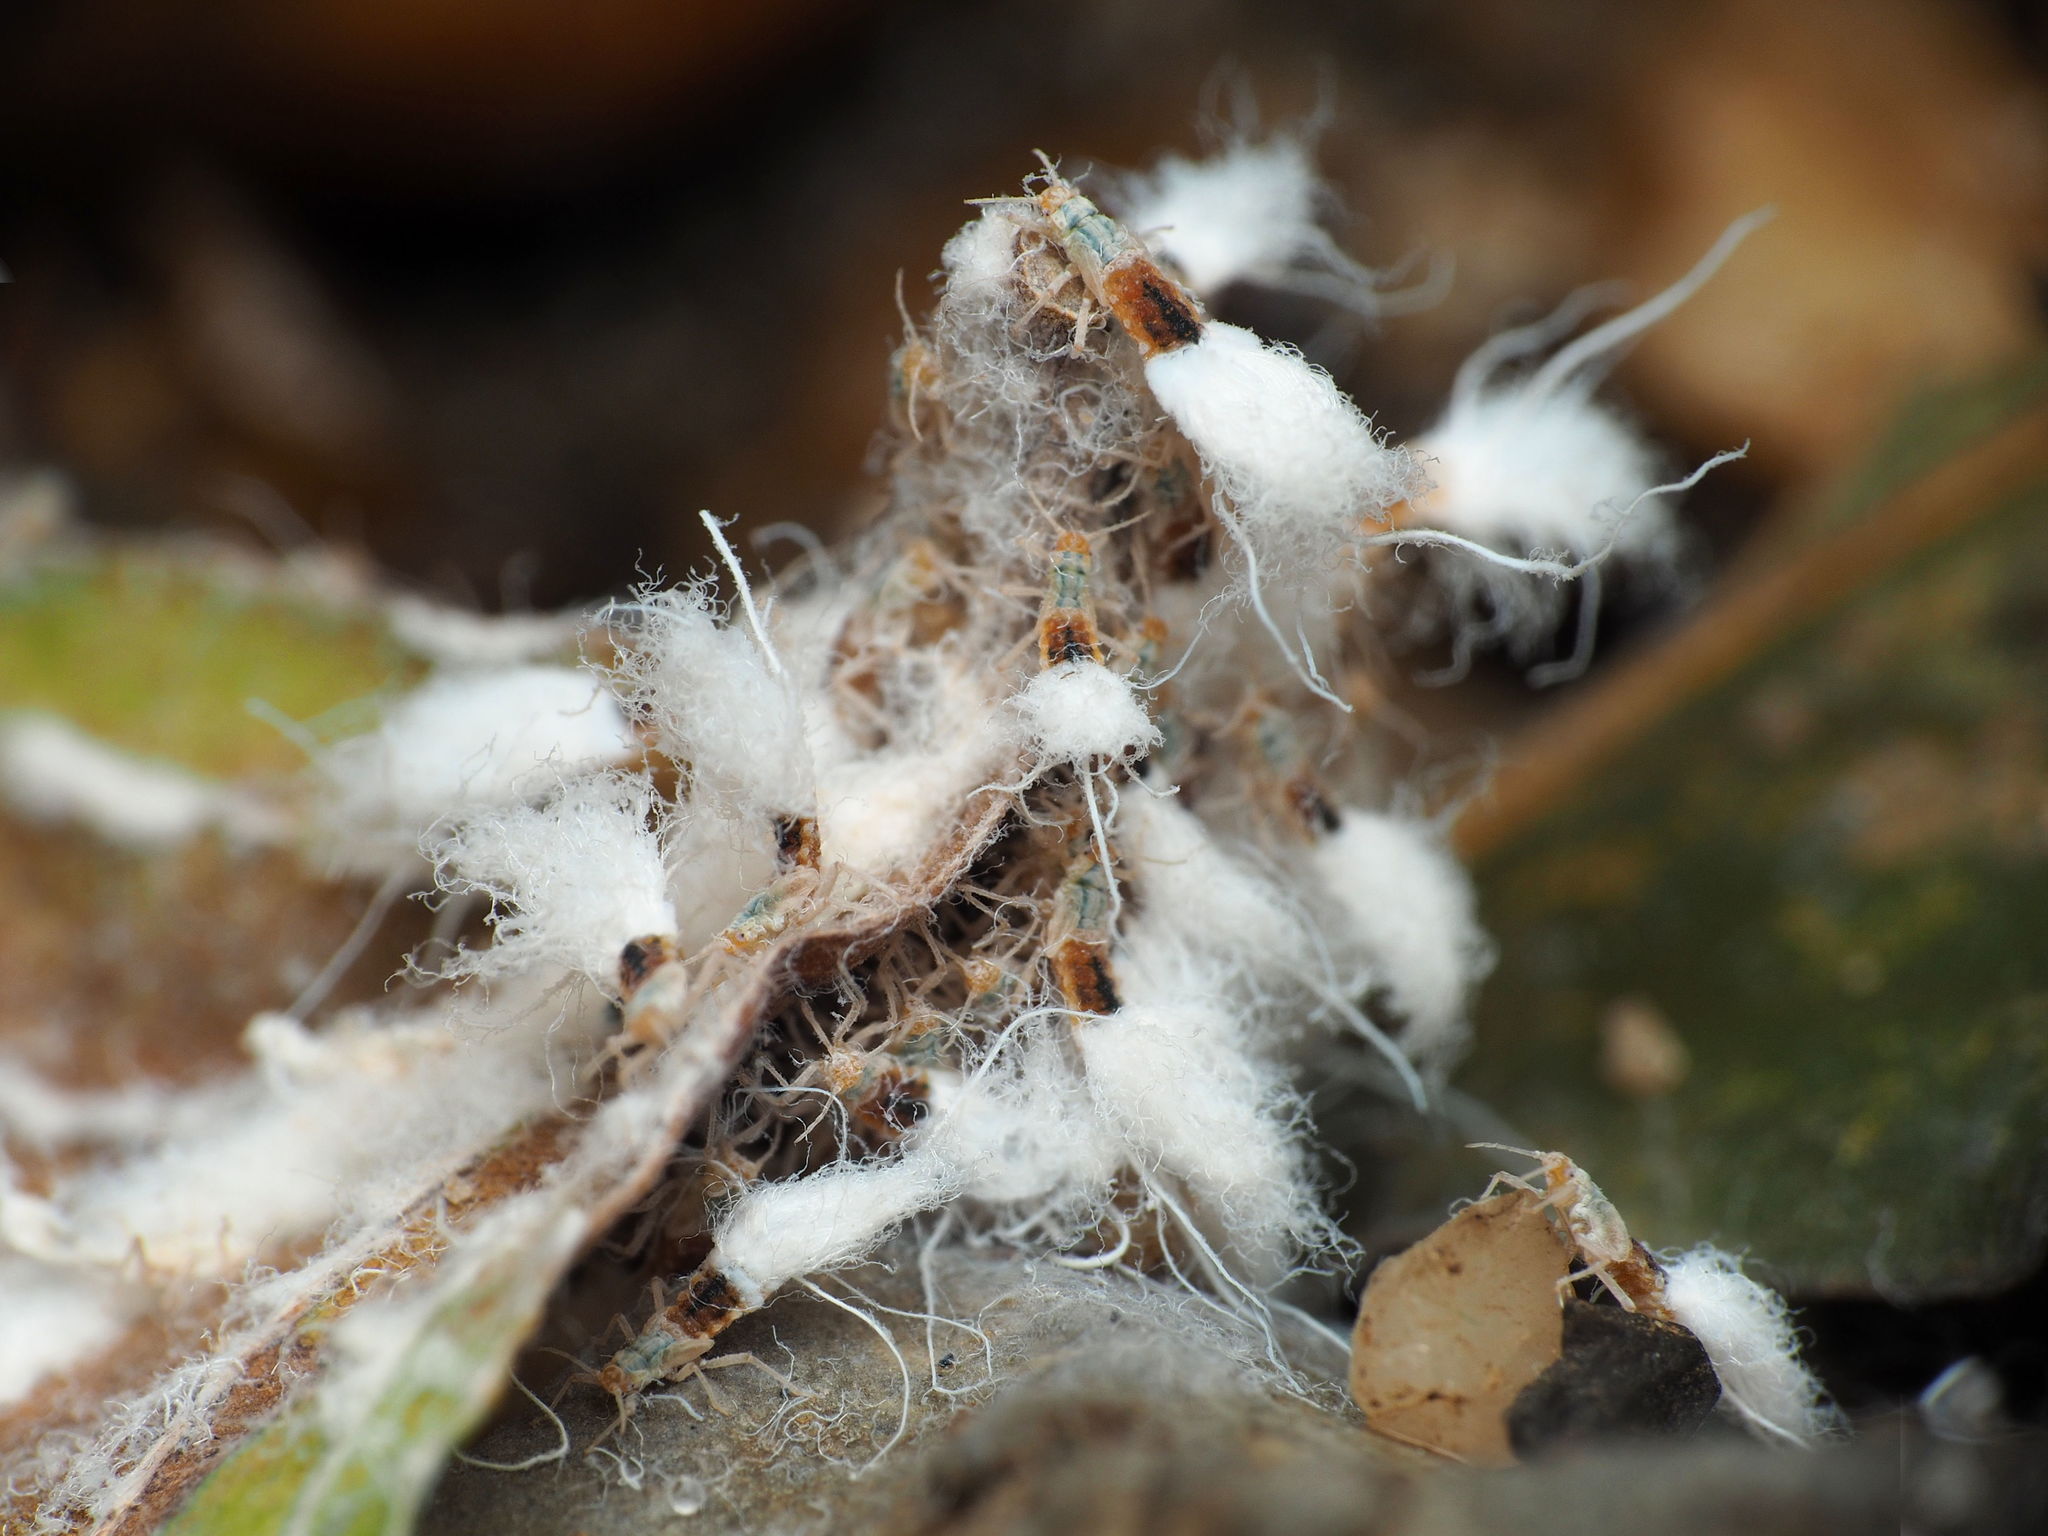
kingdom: Animalia
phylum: Arthropoda
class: Insecta
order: Hemiptera
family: Aphididae
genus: Grylloprociphilus
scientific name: Grylloprociphilus imbricator
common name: Beech blight aphid
